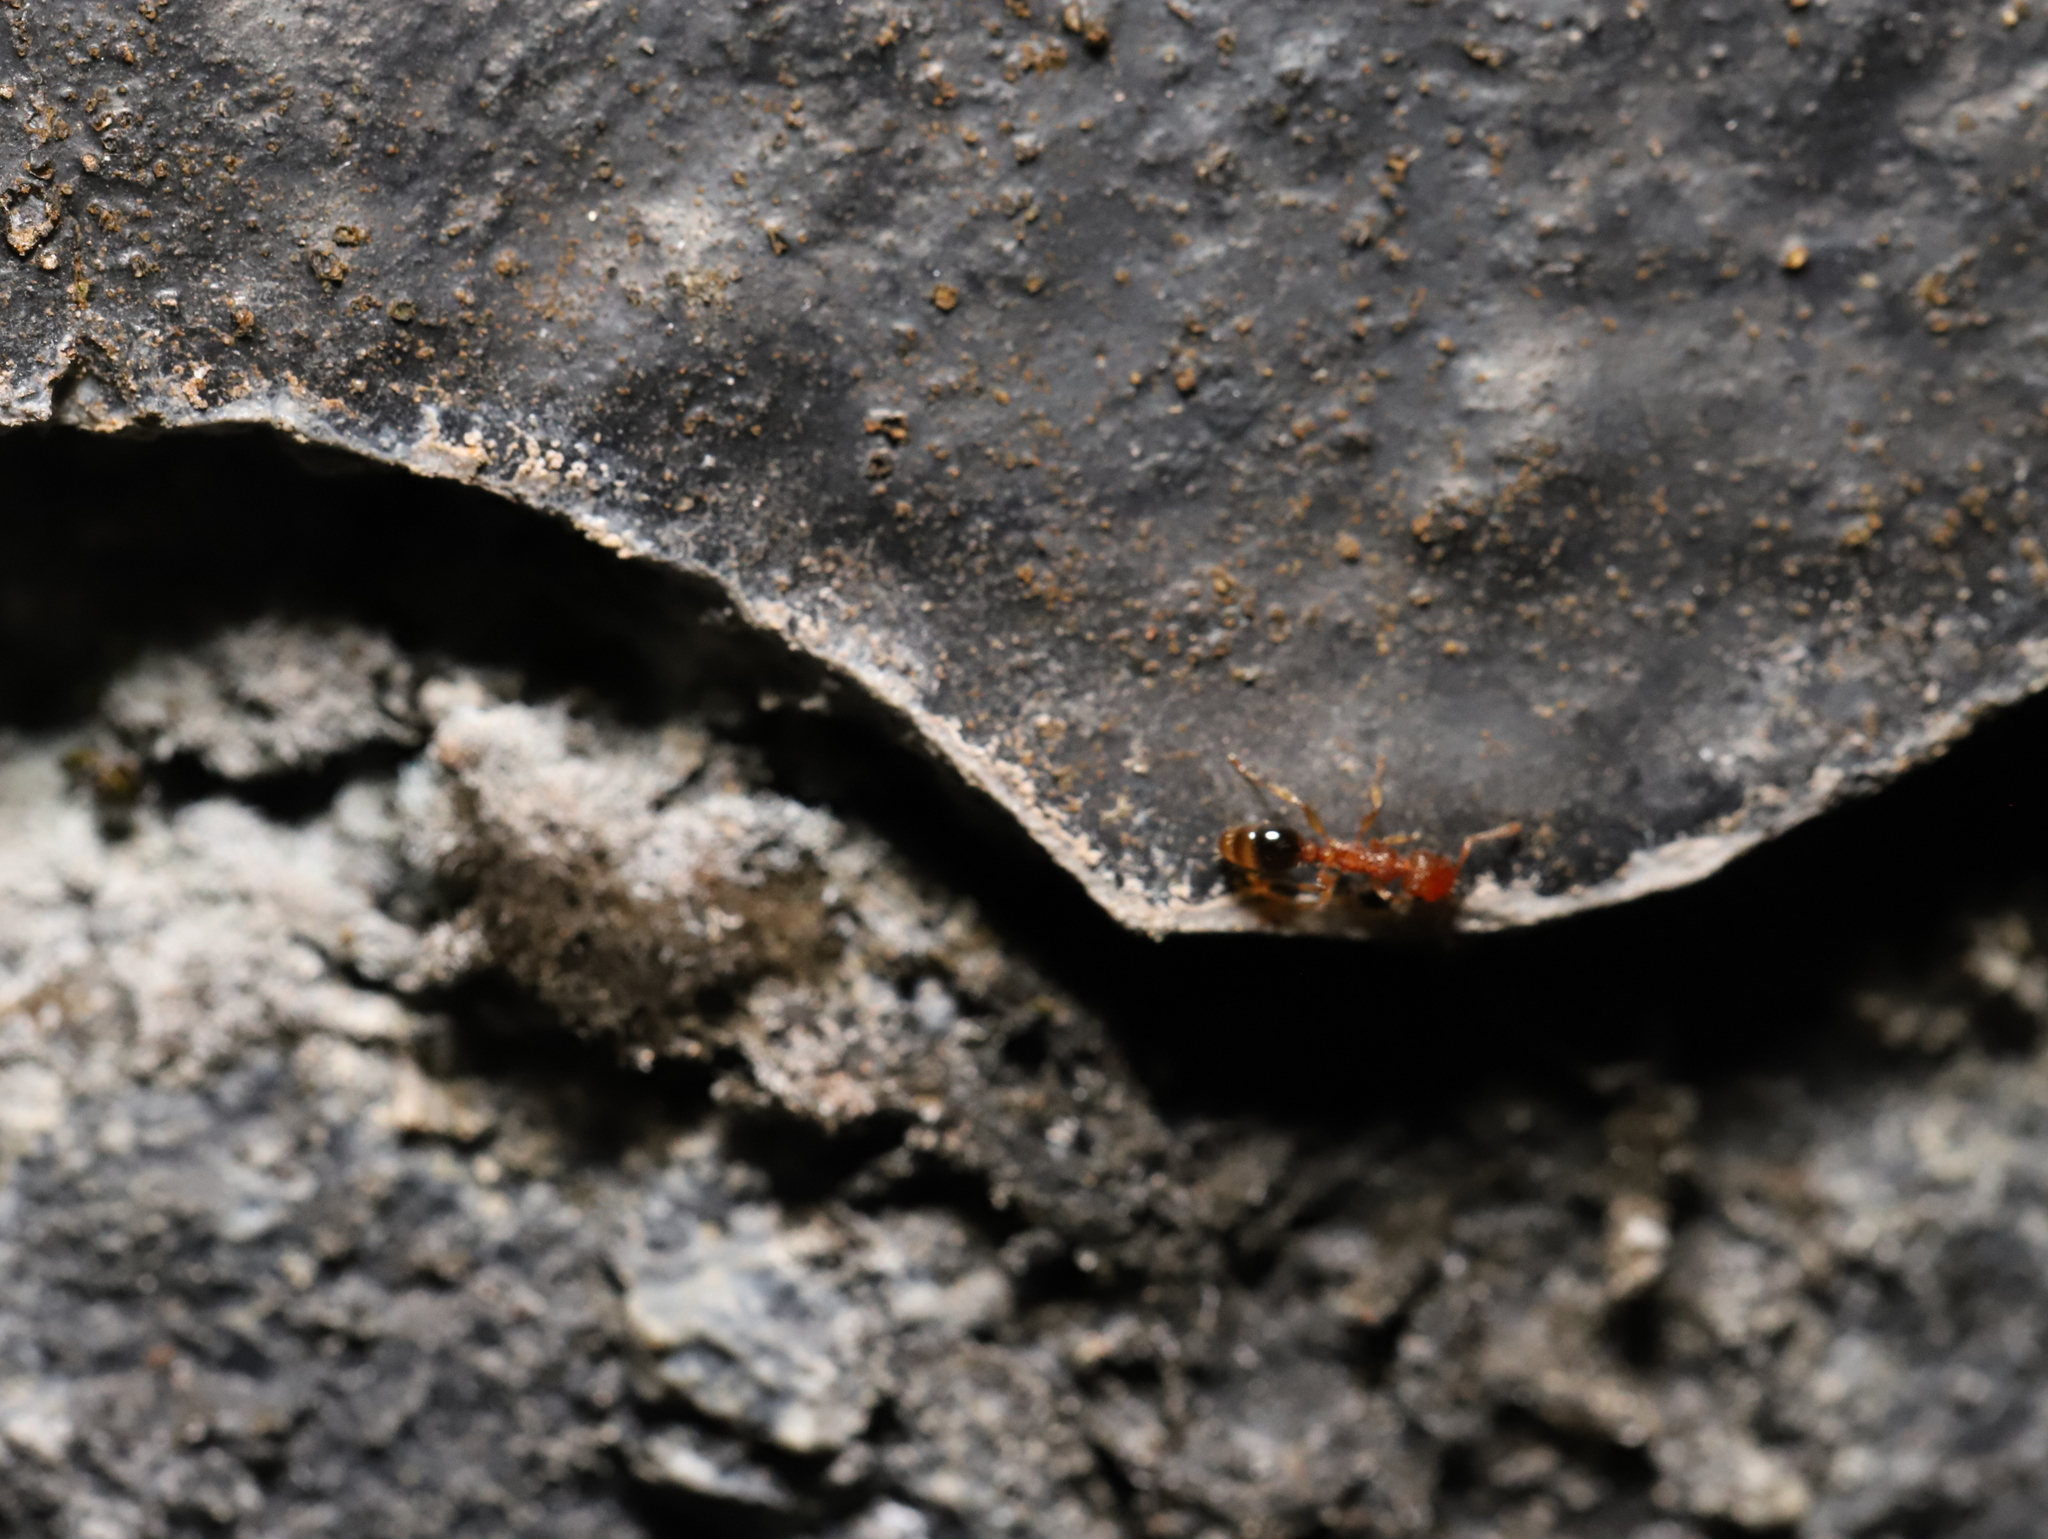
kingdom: Animalia
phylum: Arthropoda
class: Insecta
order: Hymenoptera
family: Formicidae
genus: Tetramorium
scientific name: Tetramorium bicarinatum
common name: Guinea ant
